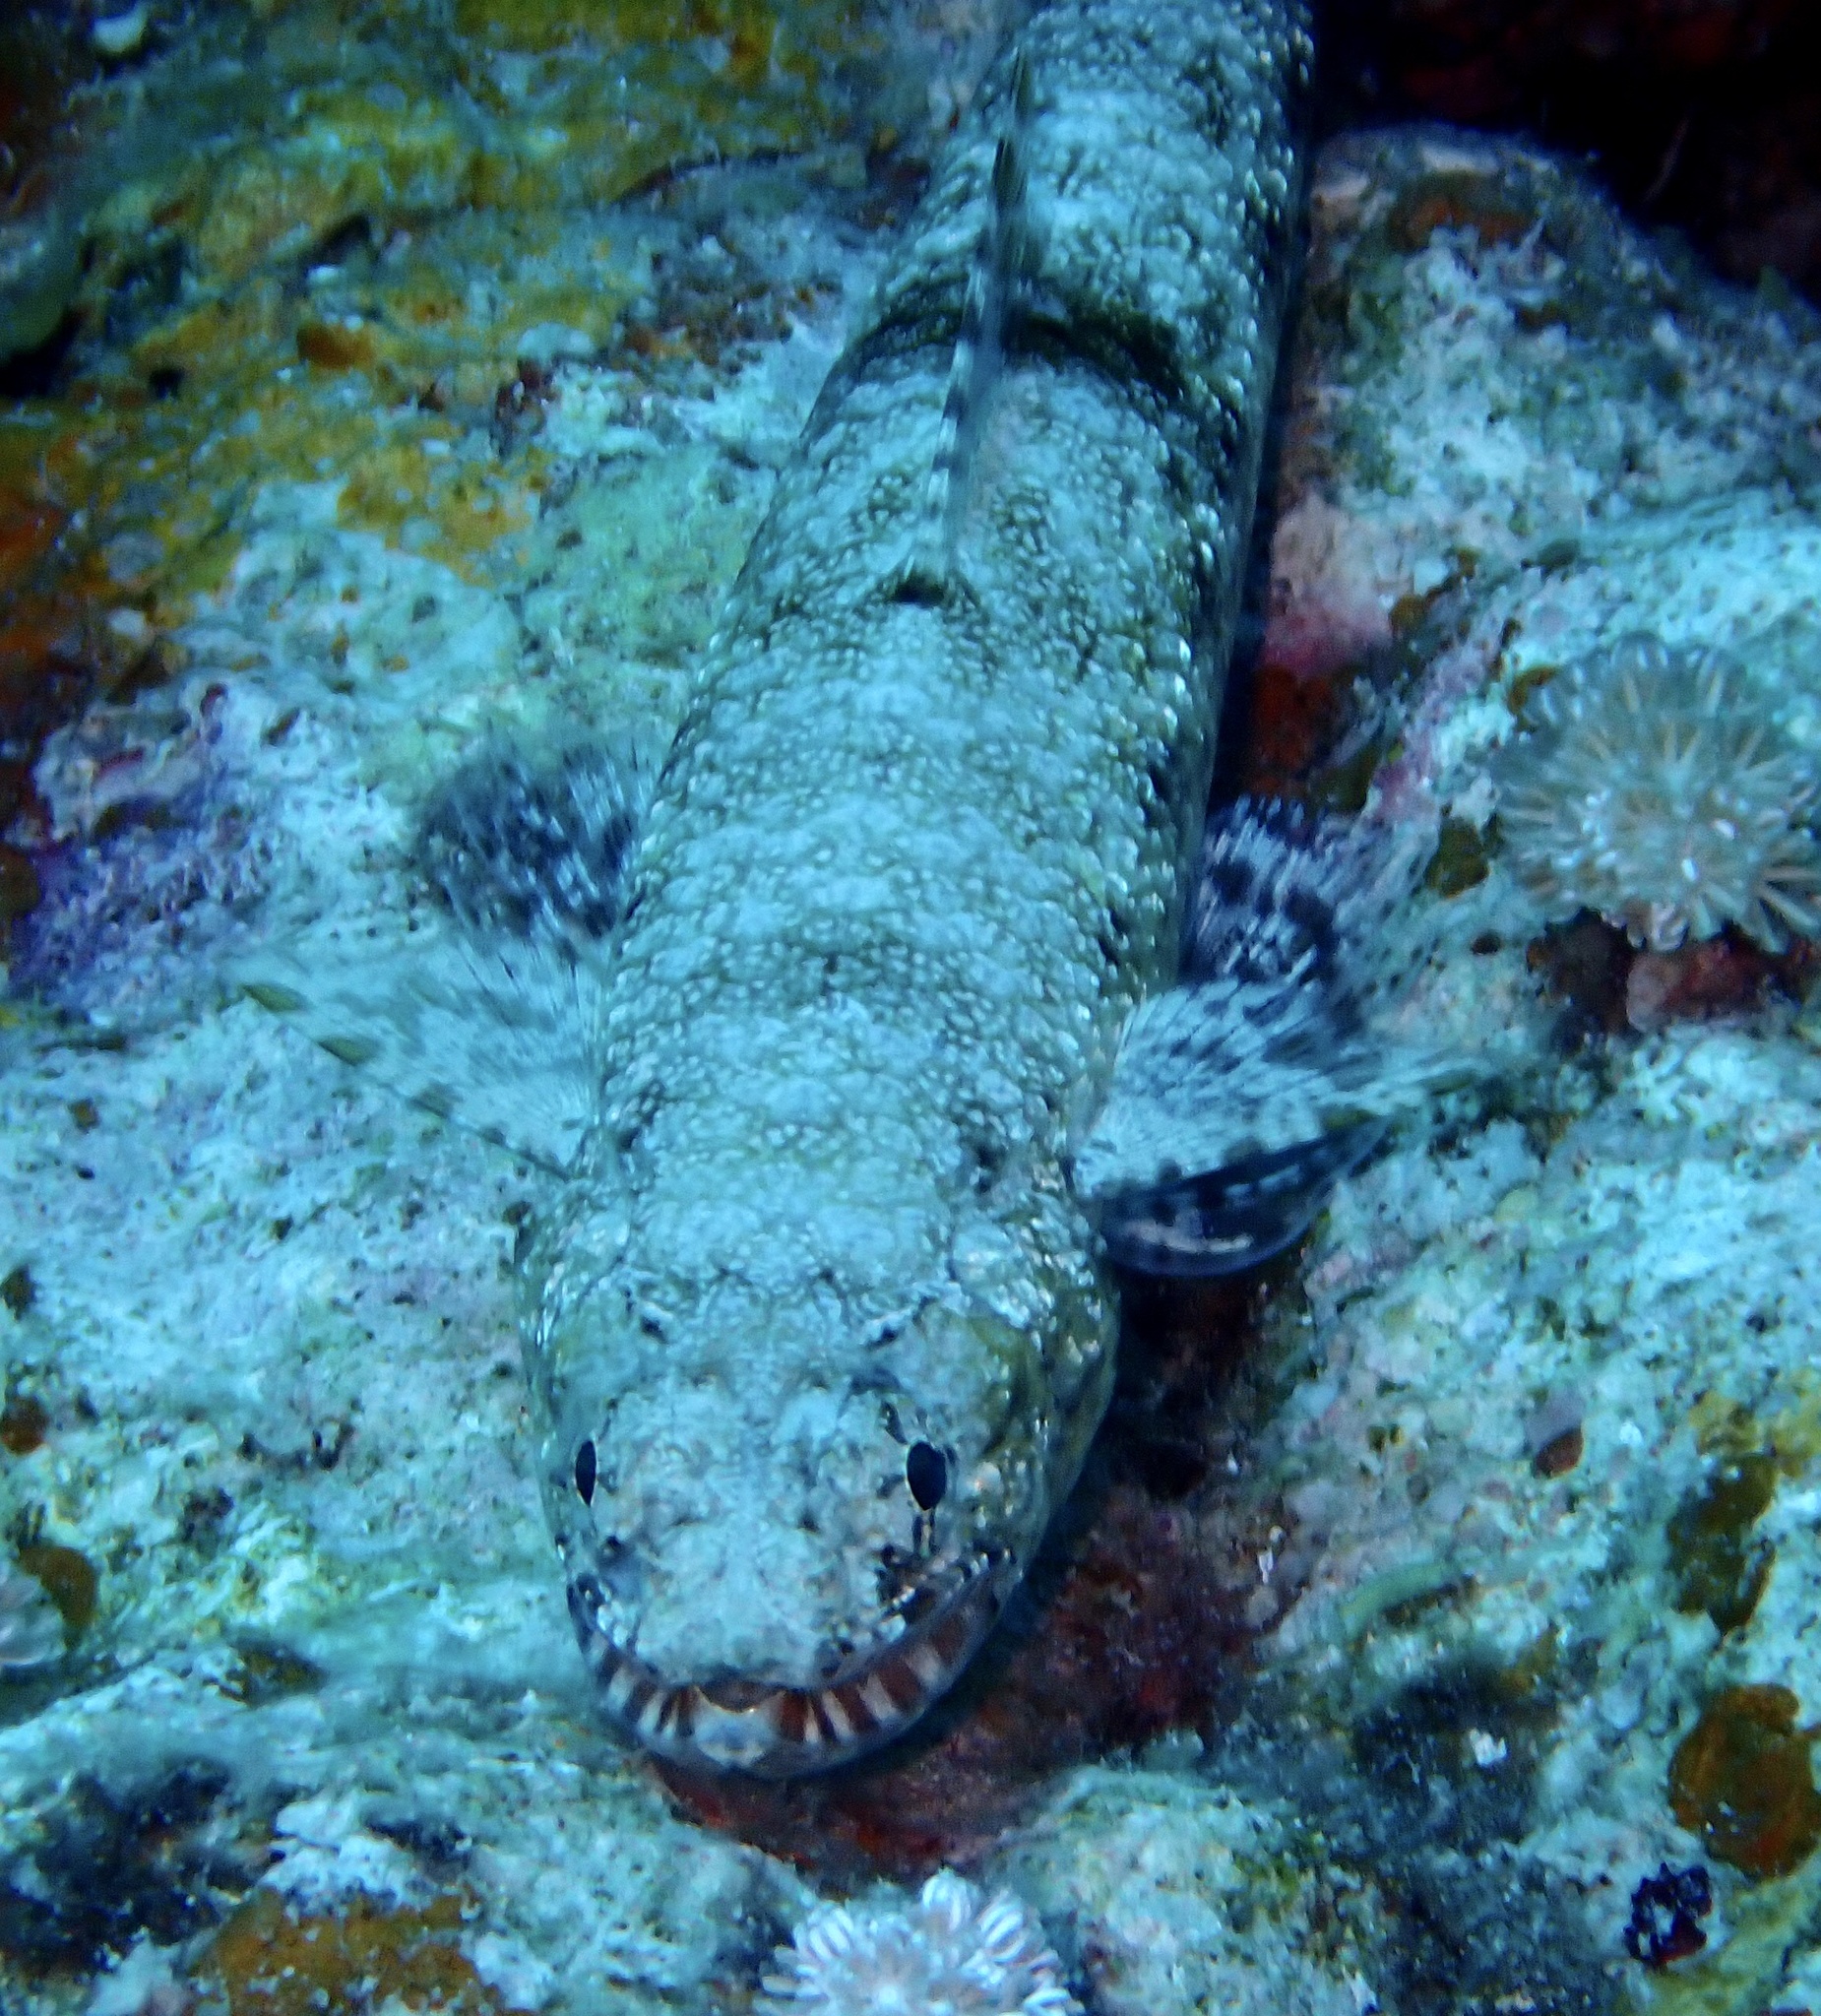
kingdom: Animalia
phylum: Chordata
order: Aulopiformes
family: Synodontidae
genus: Saurida
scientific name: Saurida gracilis
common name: Slender lizardfish
